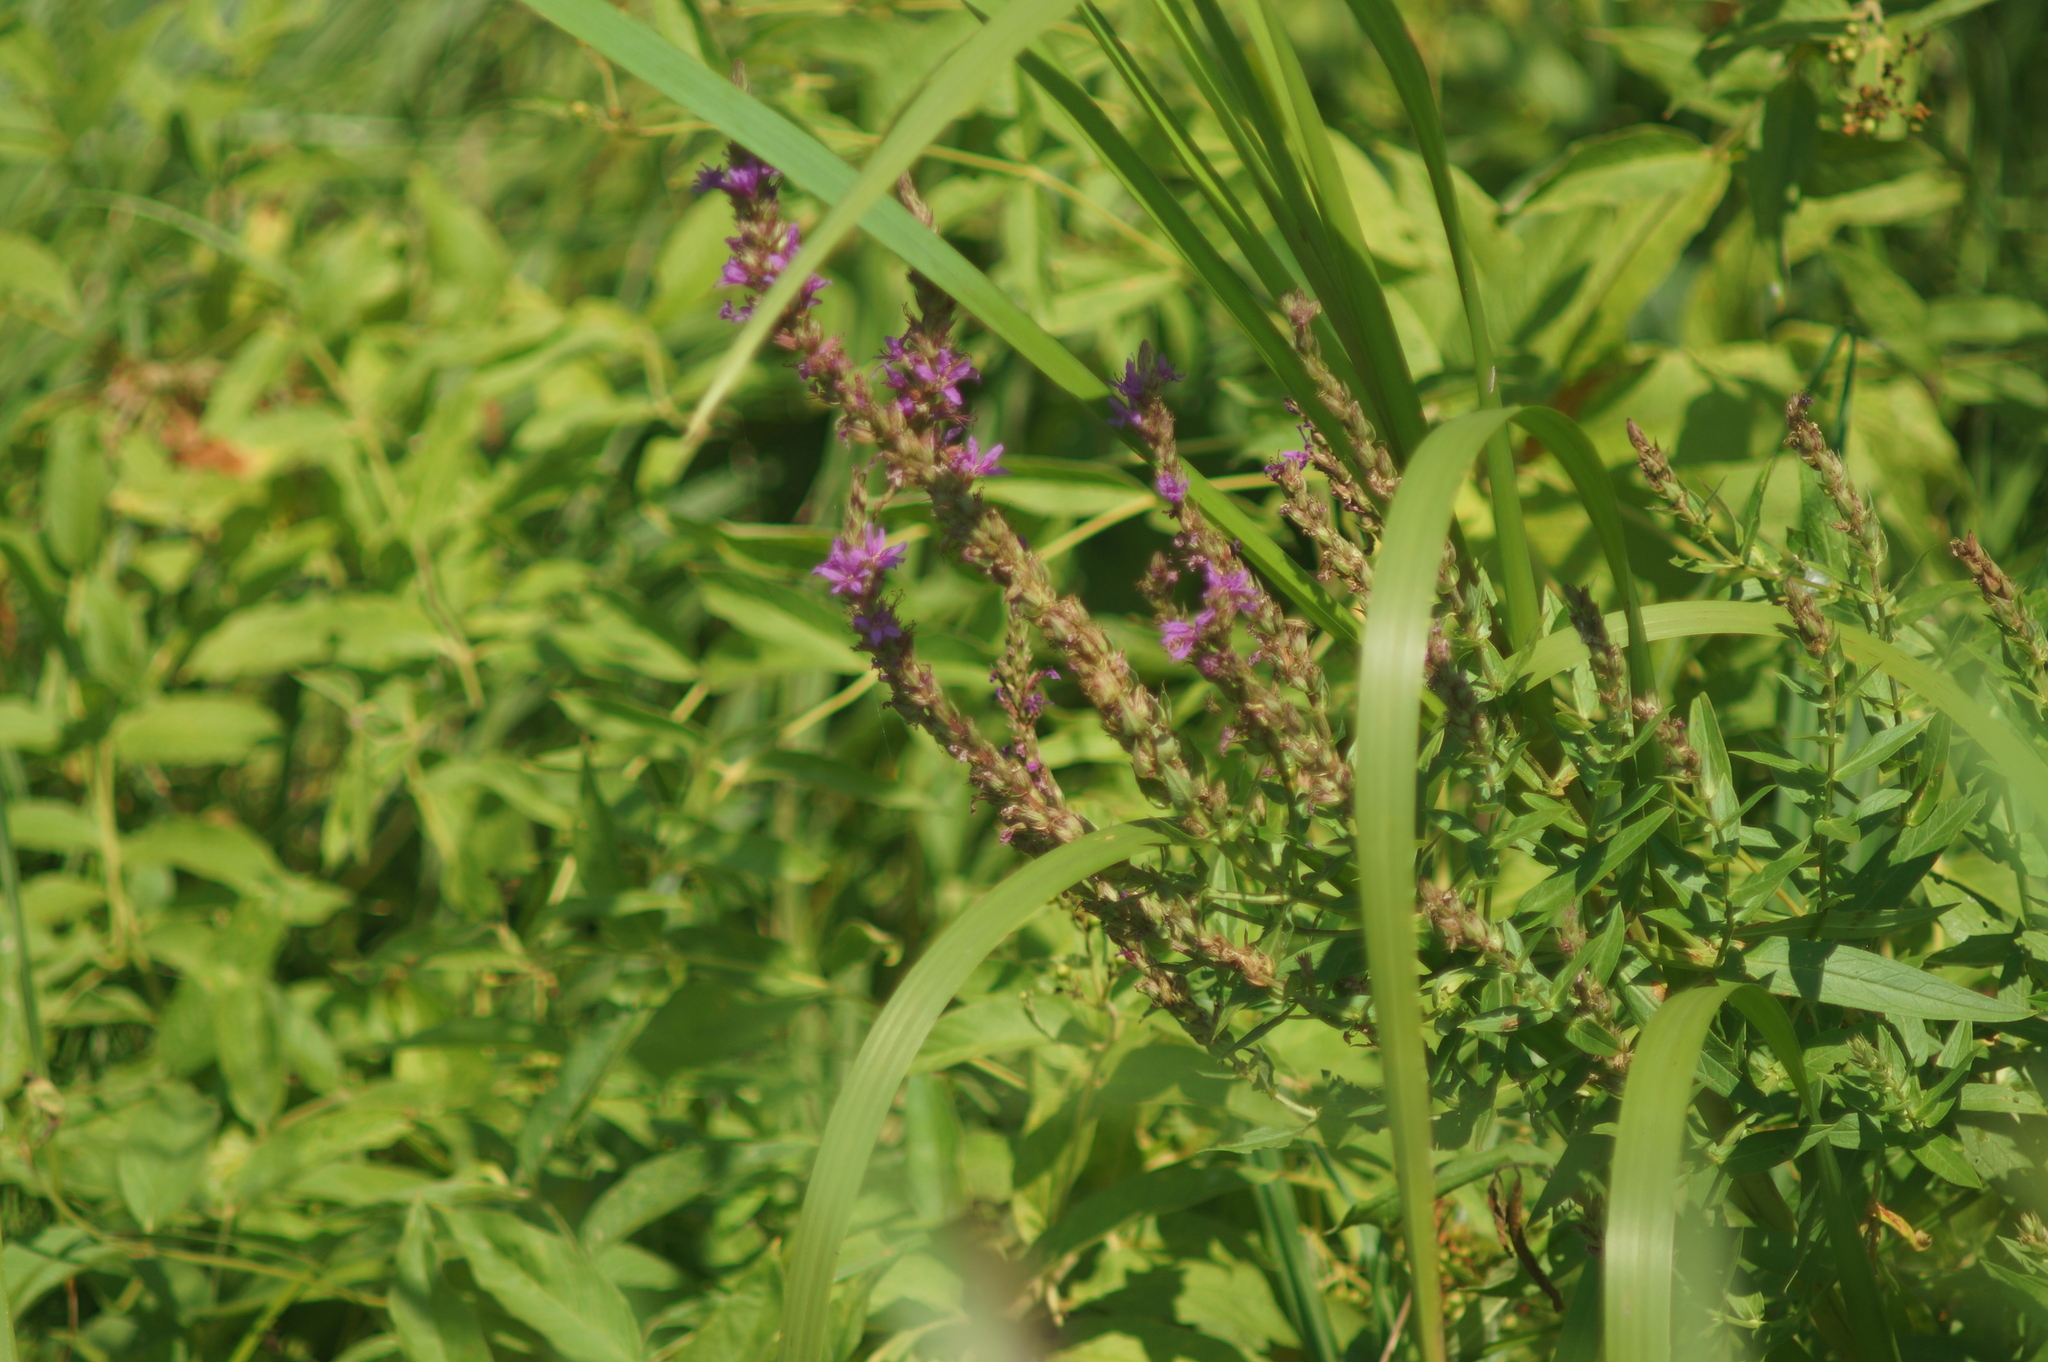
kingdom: Plantae
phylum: Tracheophyta
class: Magnoliopsida
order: Myrtales
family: Lythraceae
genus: Lythrum
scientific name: Lythrum salicaria
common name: Purple loosestrife
